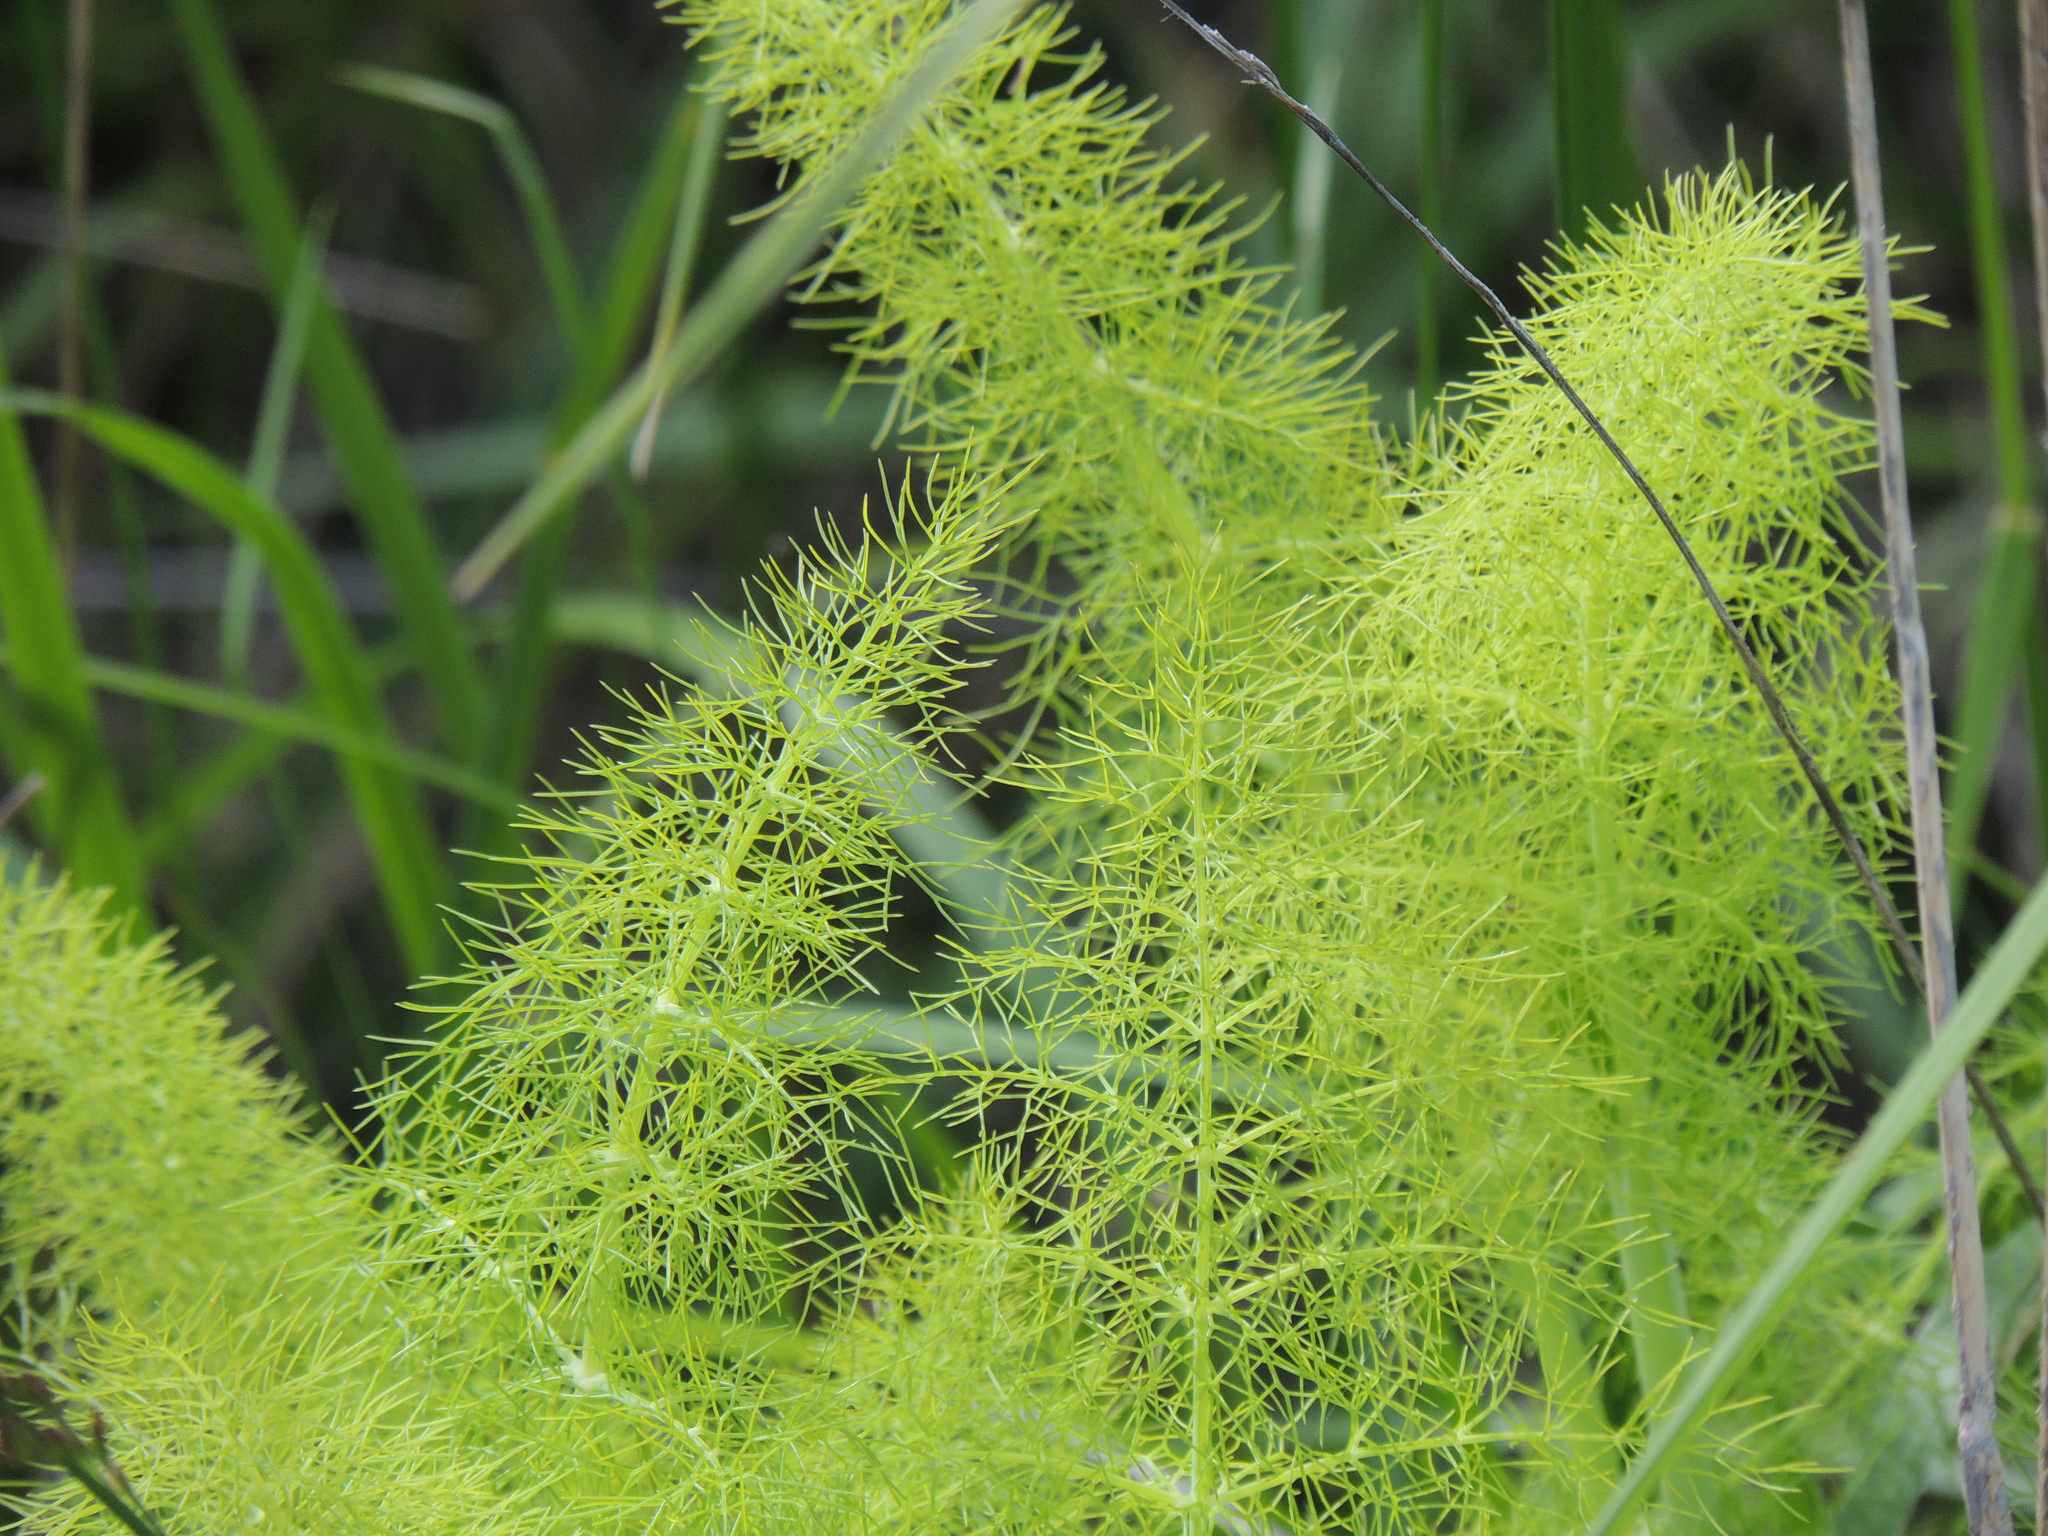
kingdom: Plantae
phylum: Tracheophyta
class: Magnoliopsida
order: Apiales
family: Apiaceae
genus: Foeniculum
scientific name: Foeniculum vulgare
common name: Fennel
